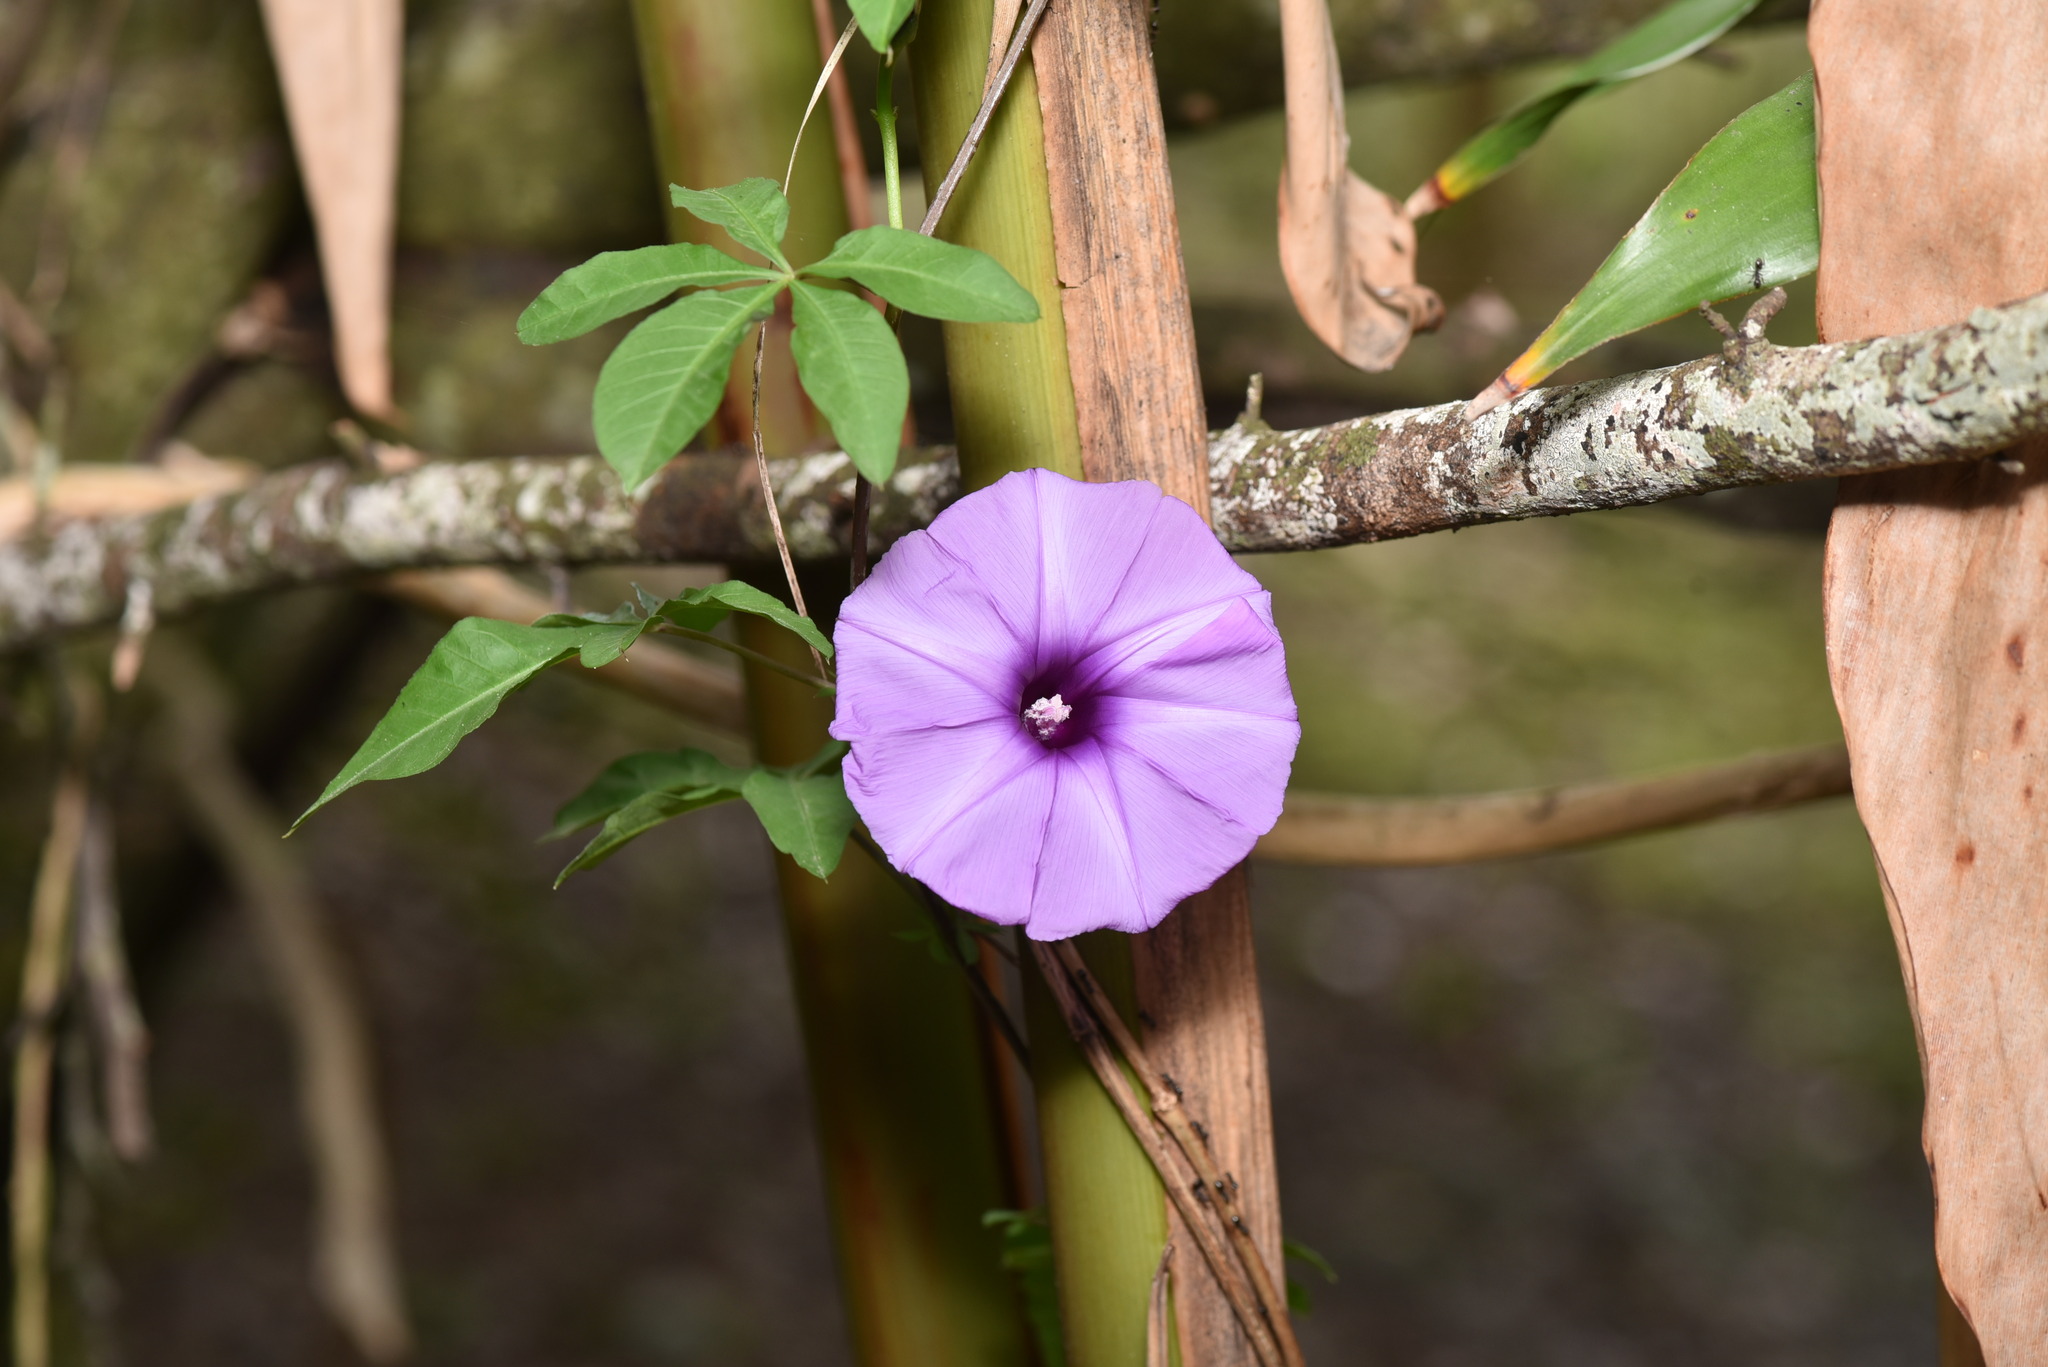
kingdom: Plantae
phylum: Tracheophyta
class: Magnoliopsida
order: Solanales
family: Convolvulaceae
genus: Ipomoea
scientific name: Ipomoea cairica
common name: Mile a minute vine
